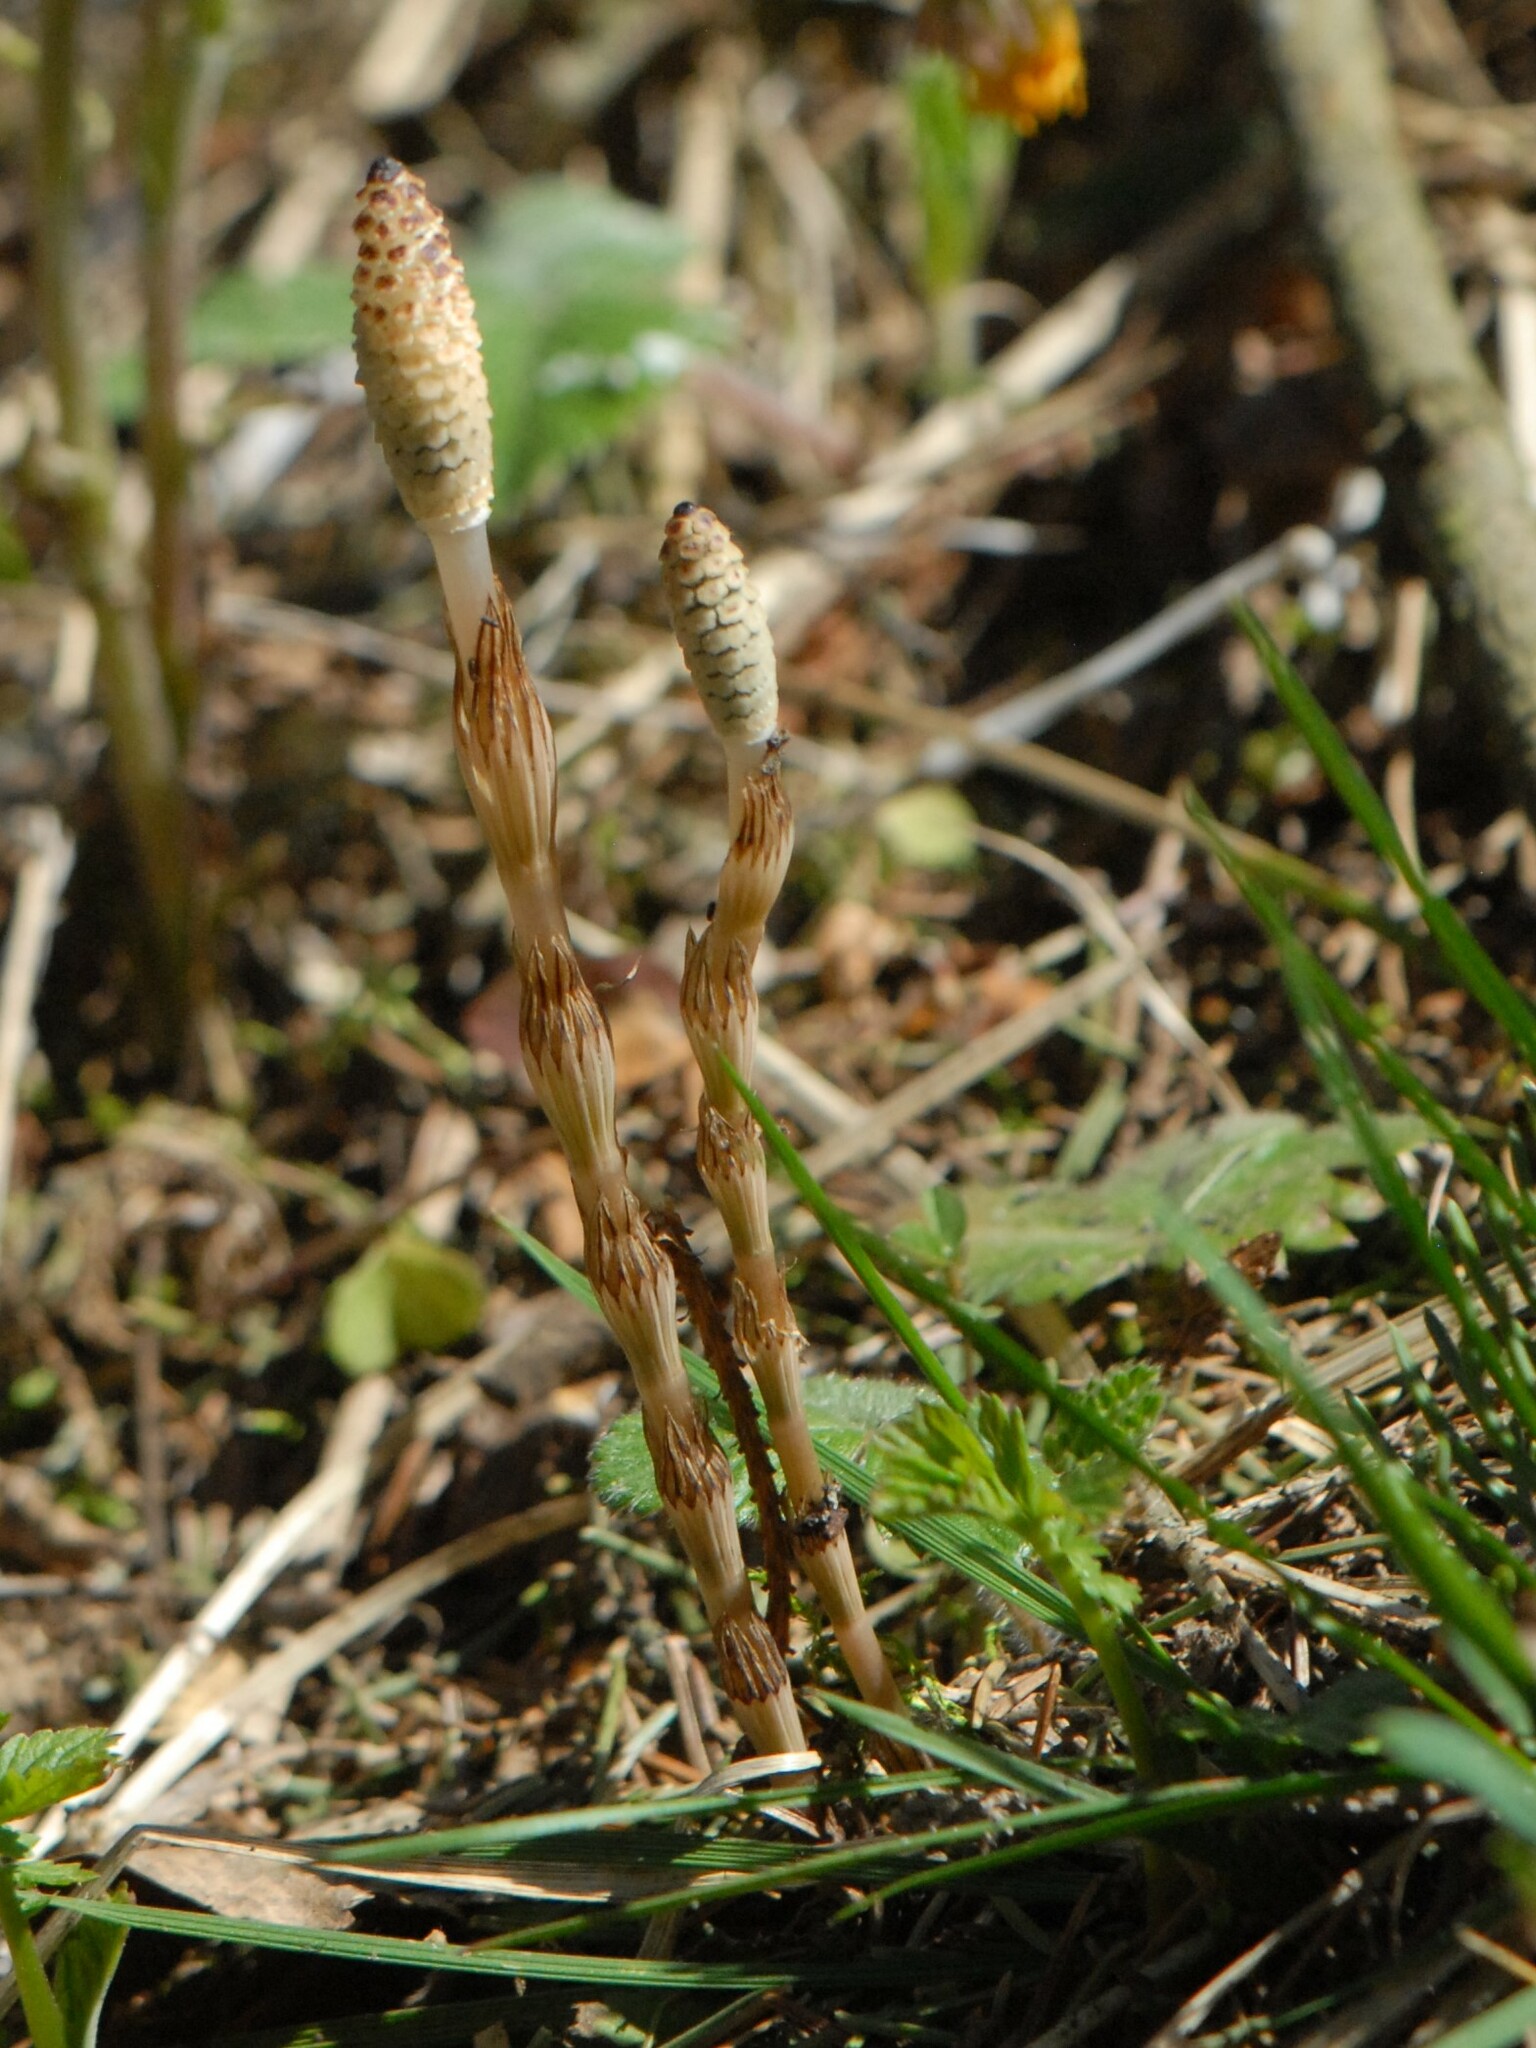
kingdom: Plantae
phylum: Tracheophyta
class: Polypodiopsida
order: Equisetales
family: Equisetaceae
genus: Equisetum
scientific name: Equisetum pratense
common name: Meadow horsetail
